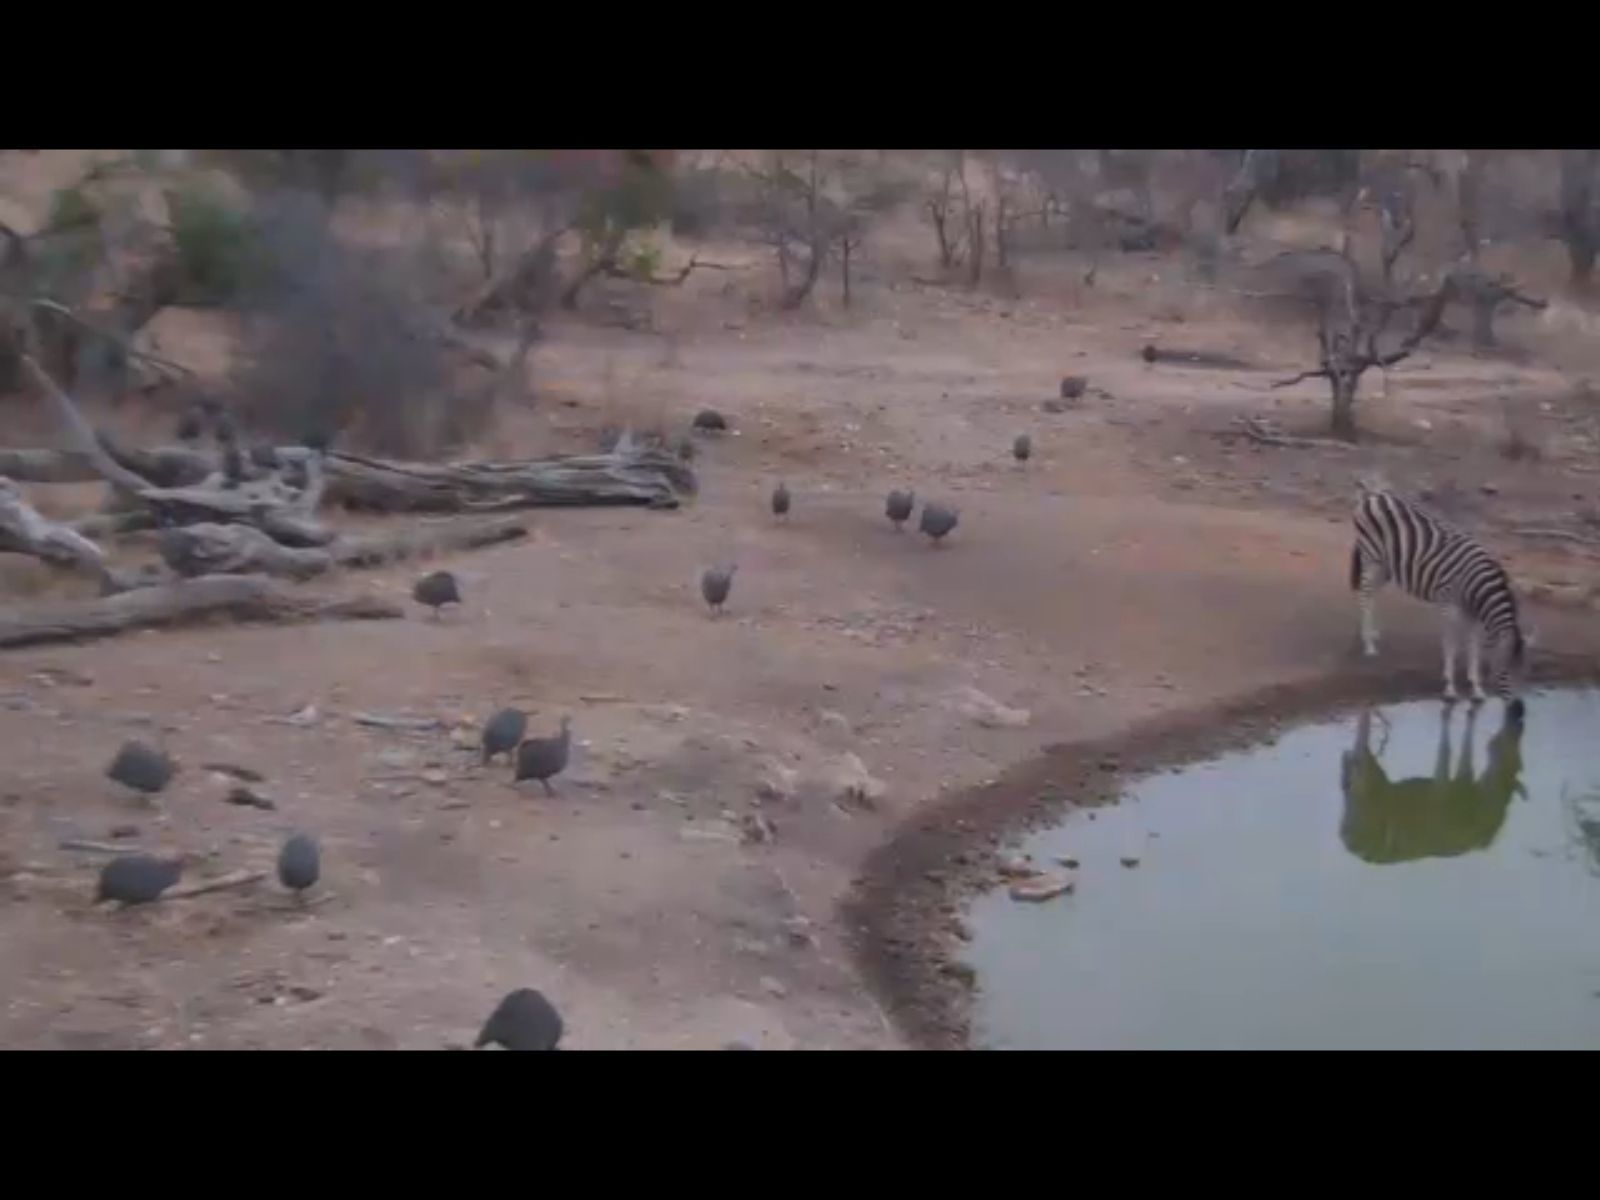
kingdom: Animalia
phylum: Chordata
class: Aves
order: Galliformes
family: Numididae
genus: Numida
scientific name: Numida meleagris
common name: Helmeted guineafowl
